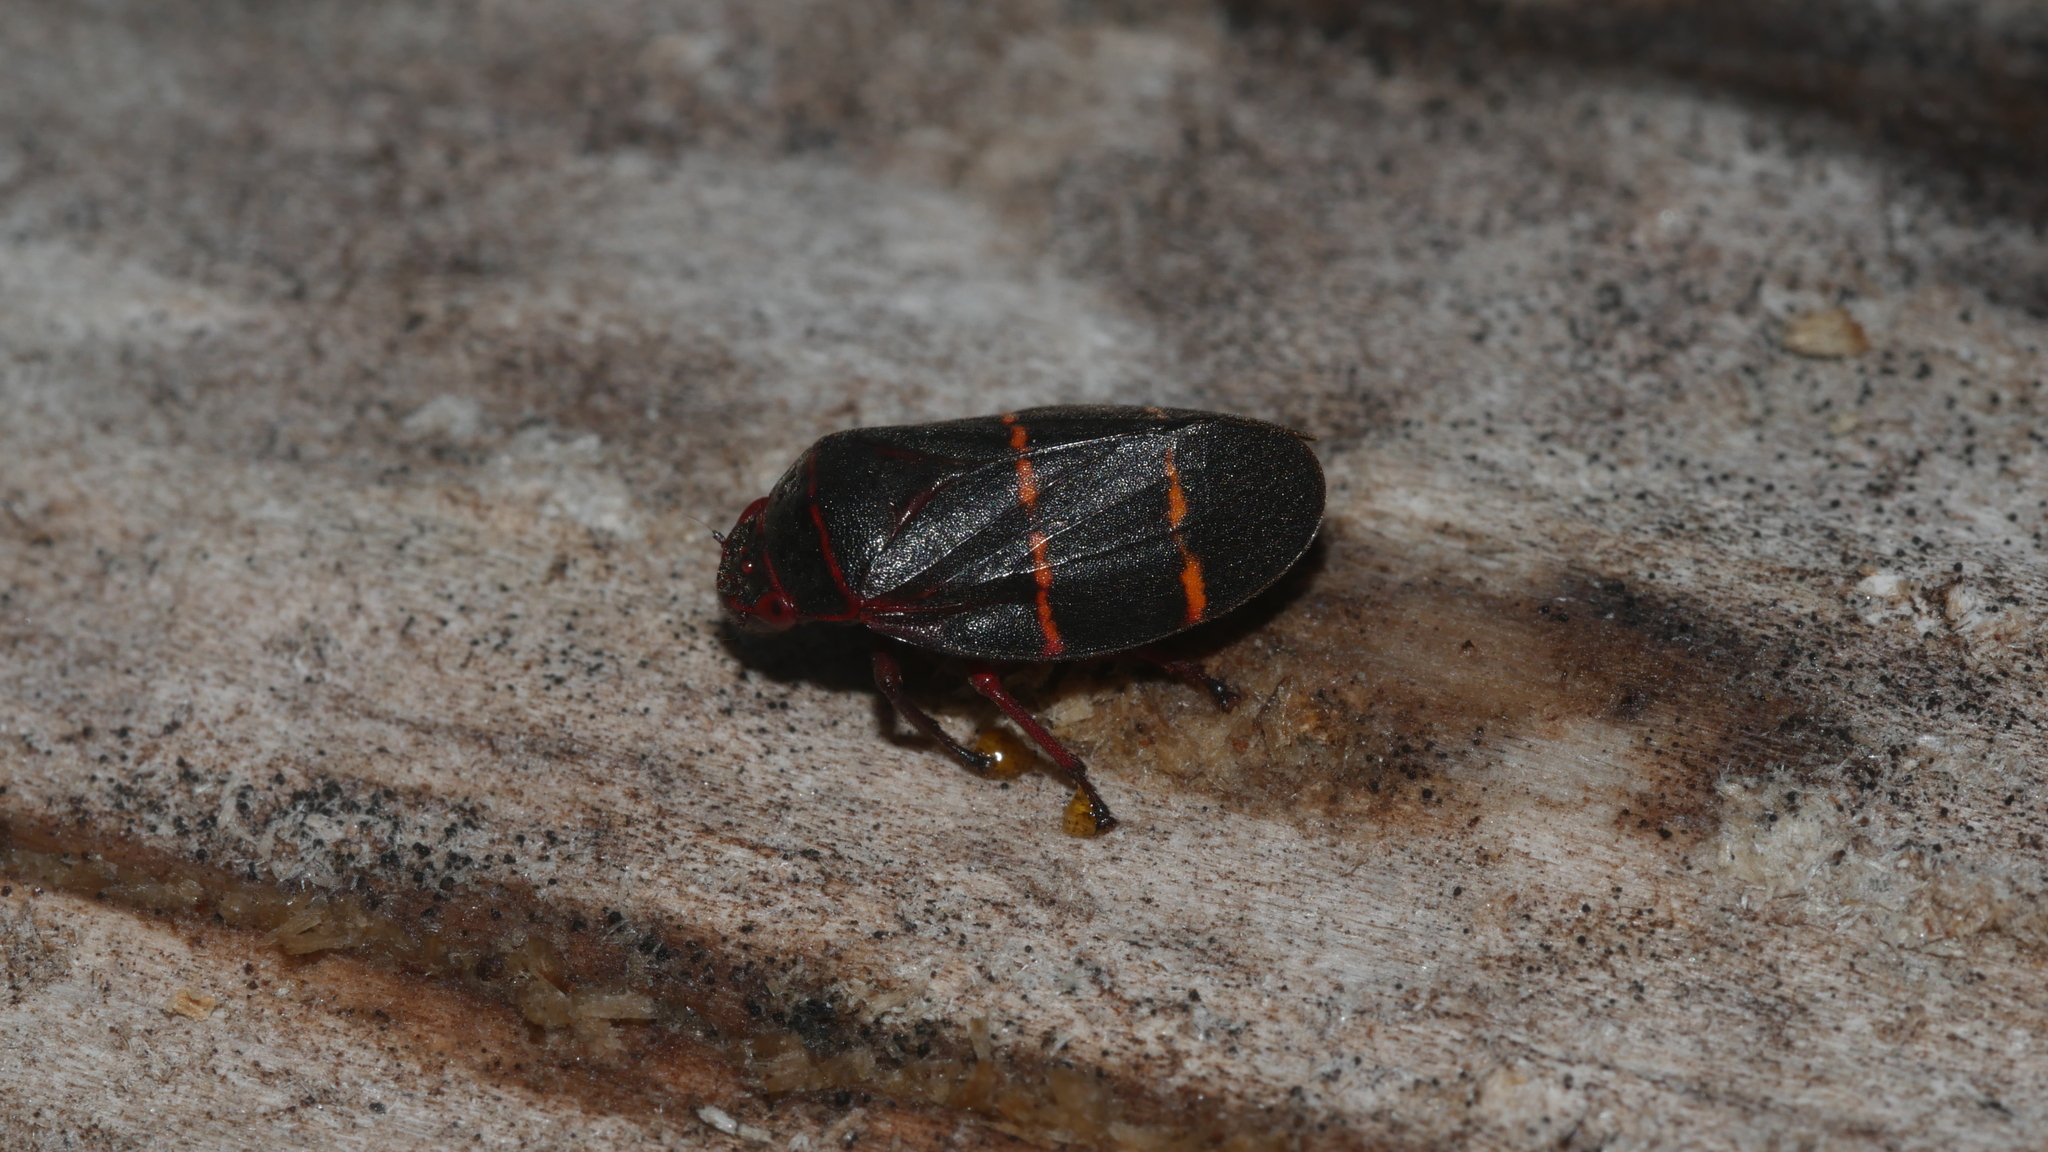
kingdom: Animalia
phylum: Arthropoda
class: Insecta
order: Hemiptera
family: Cercopidae
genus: Prosapia
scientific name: Prosapia bicincta
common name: Twolined spittlebug
